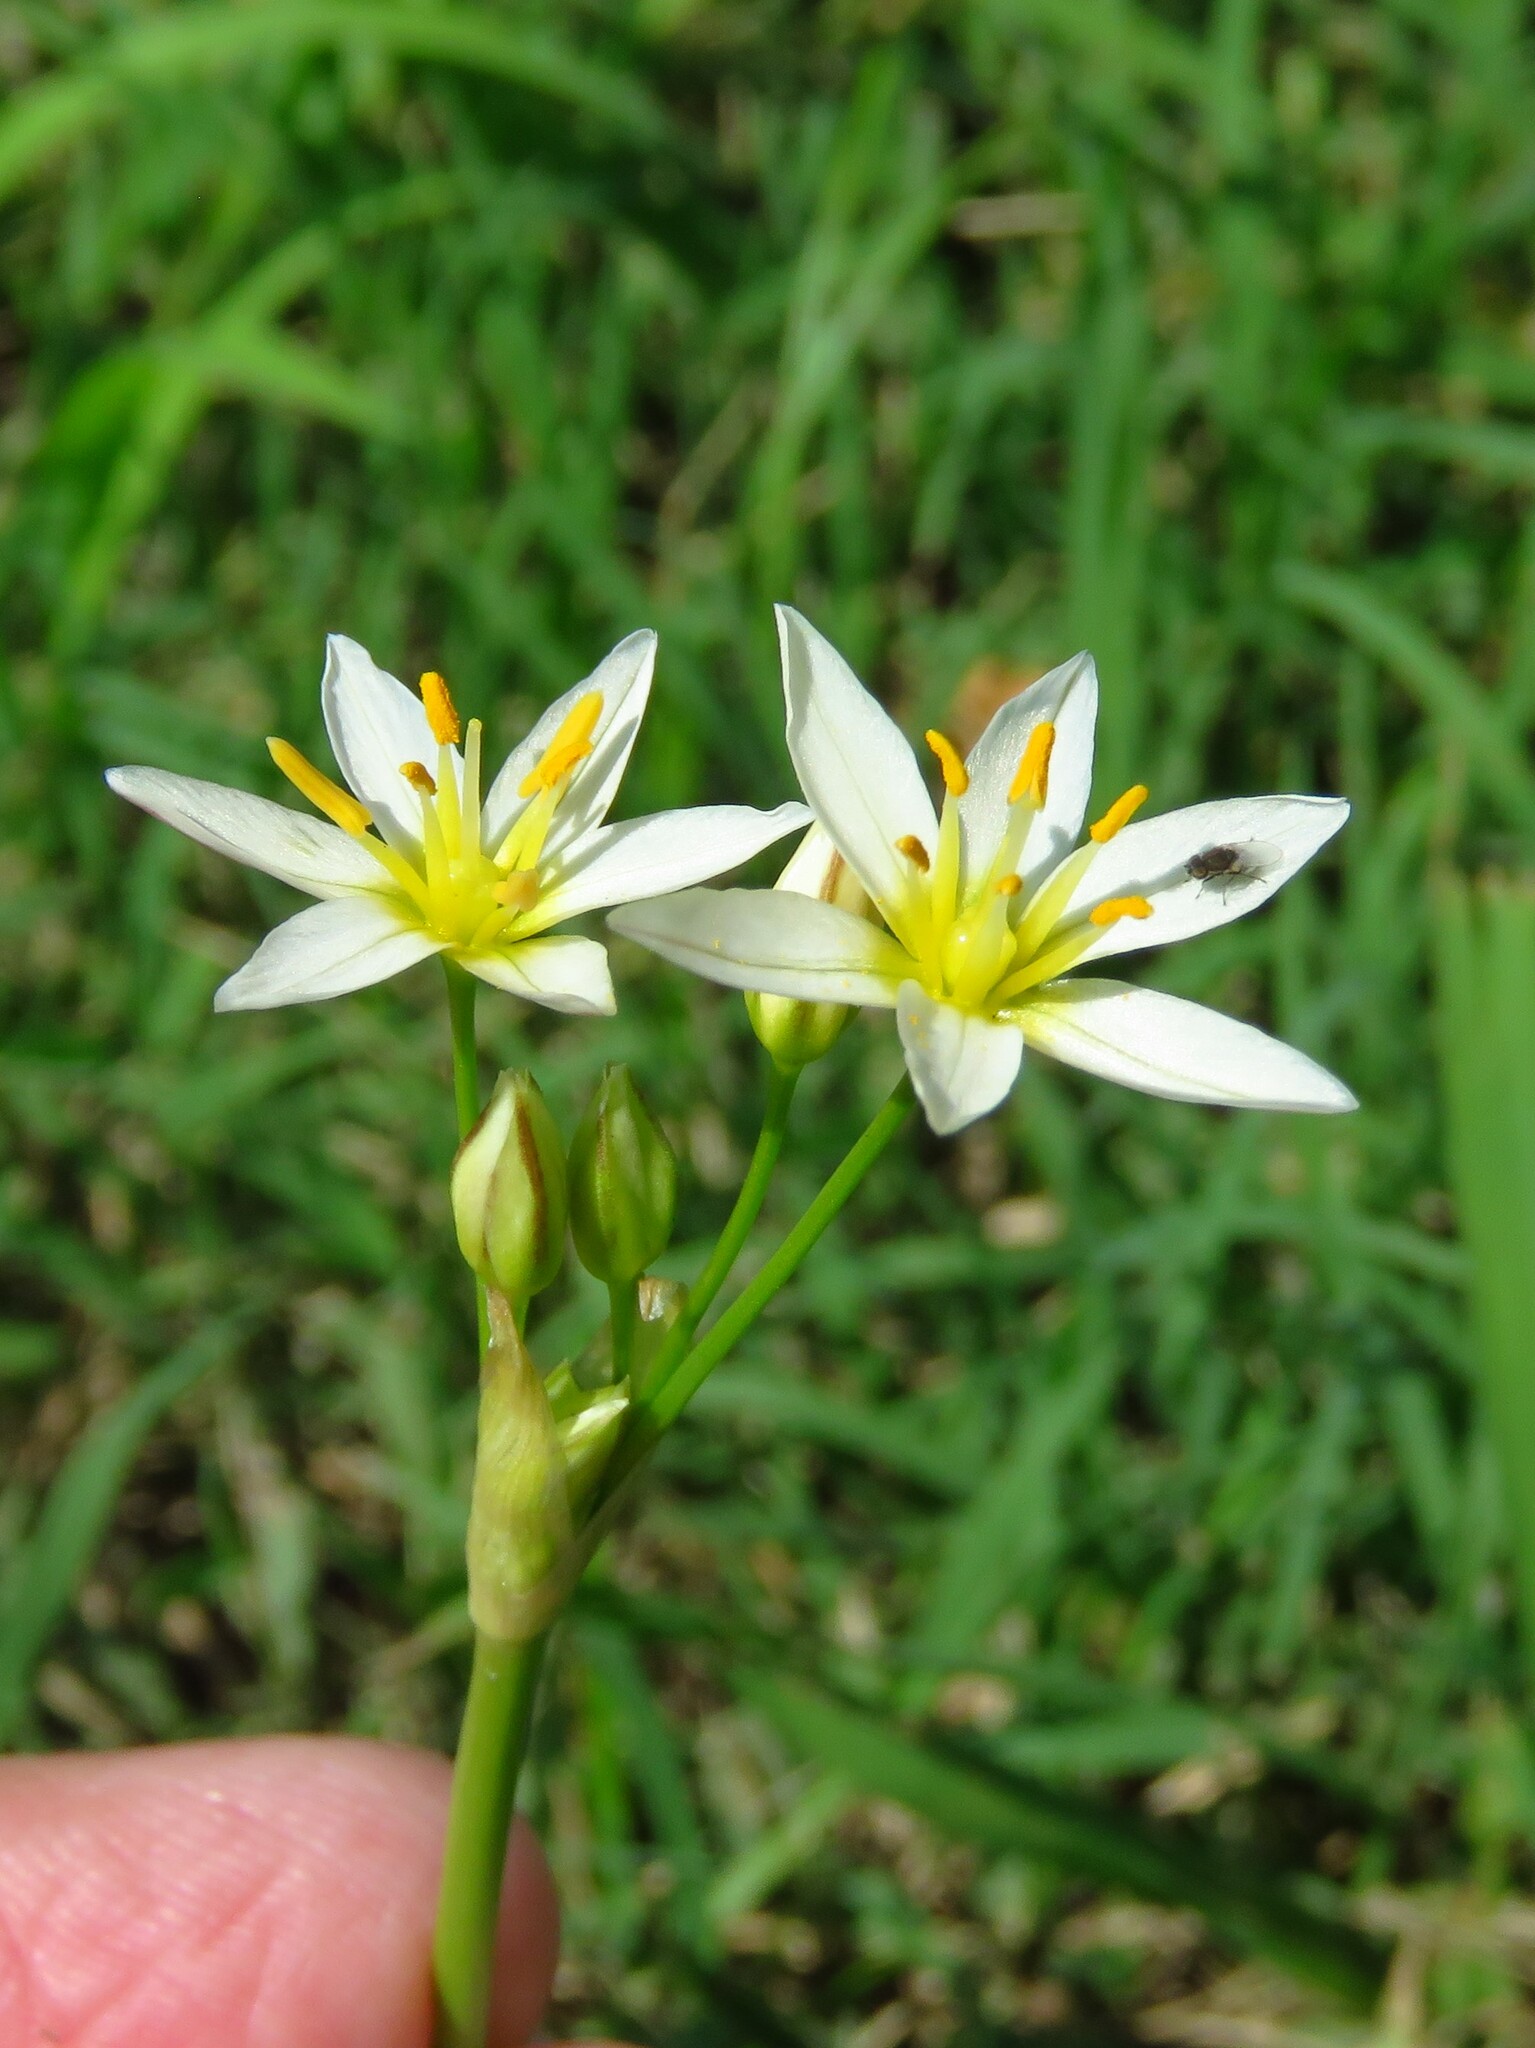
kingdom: Plantae
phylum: Tracheophyta
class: Liliopsida
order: Asparagales
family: Amaryllidaceae
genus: Nothoscordum
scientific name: Nothoscordum bivalve
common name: Crow-poison
